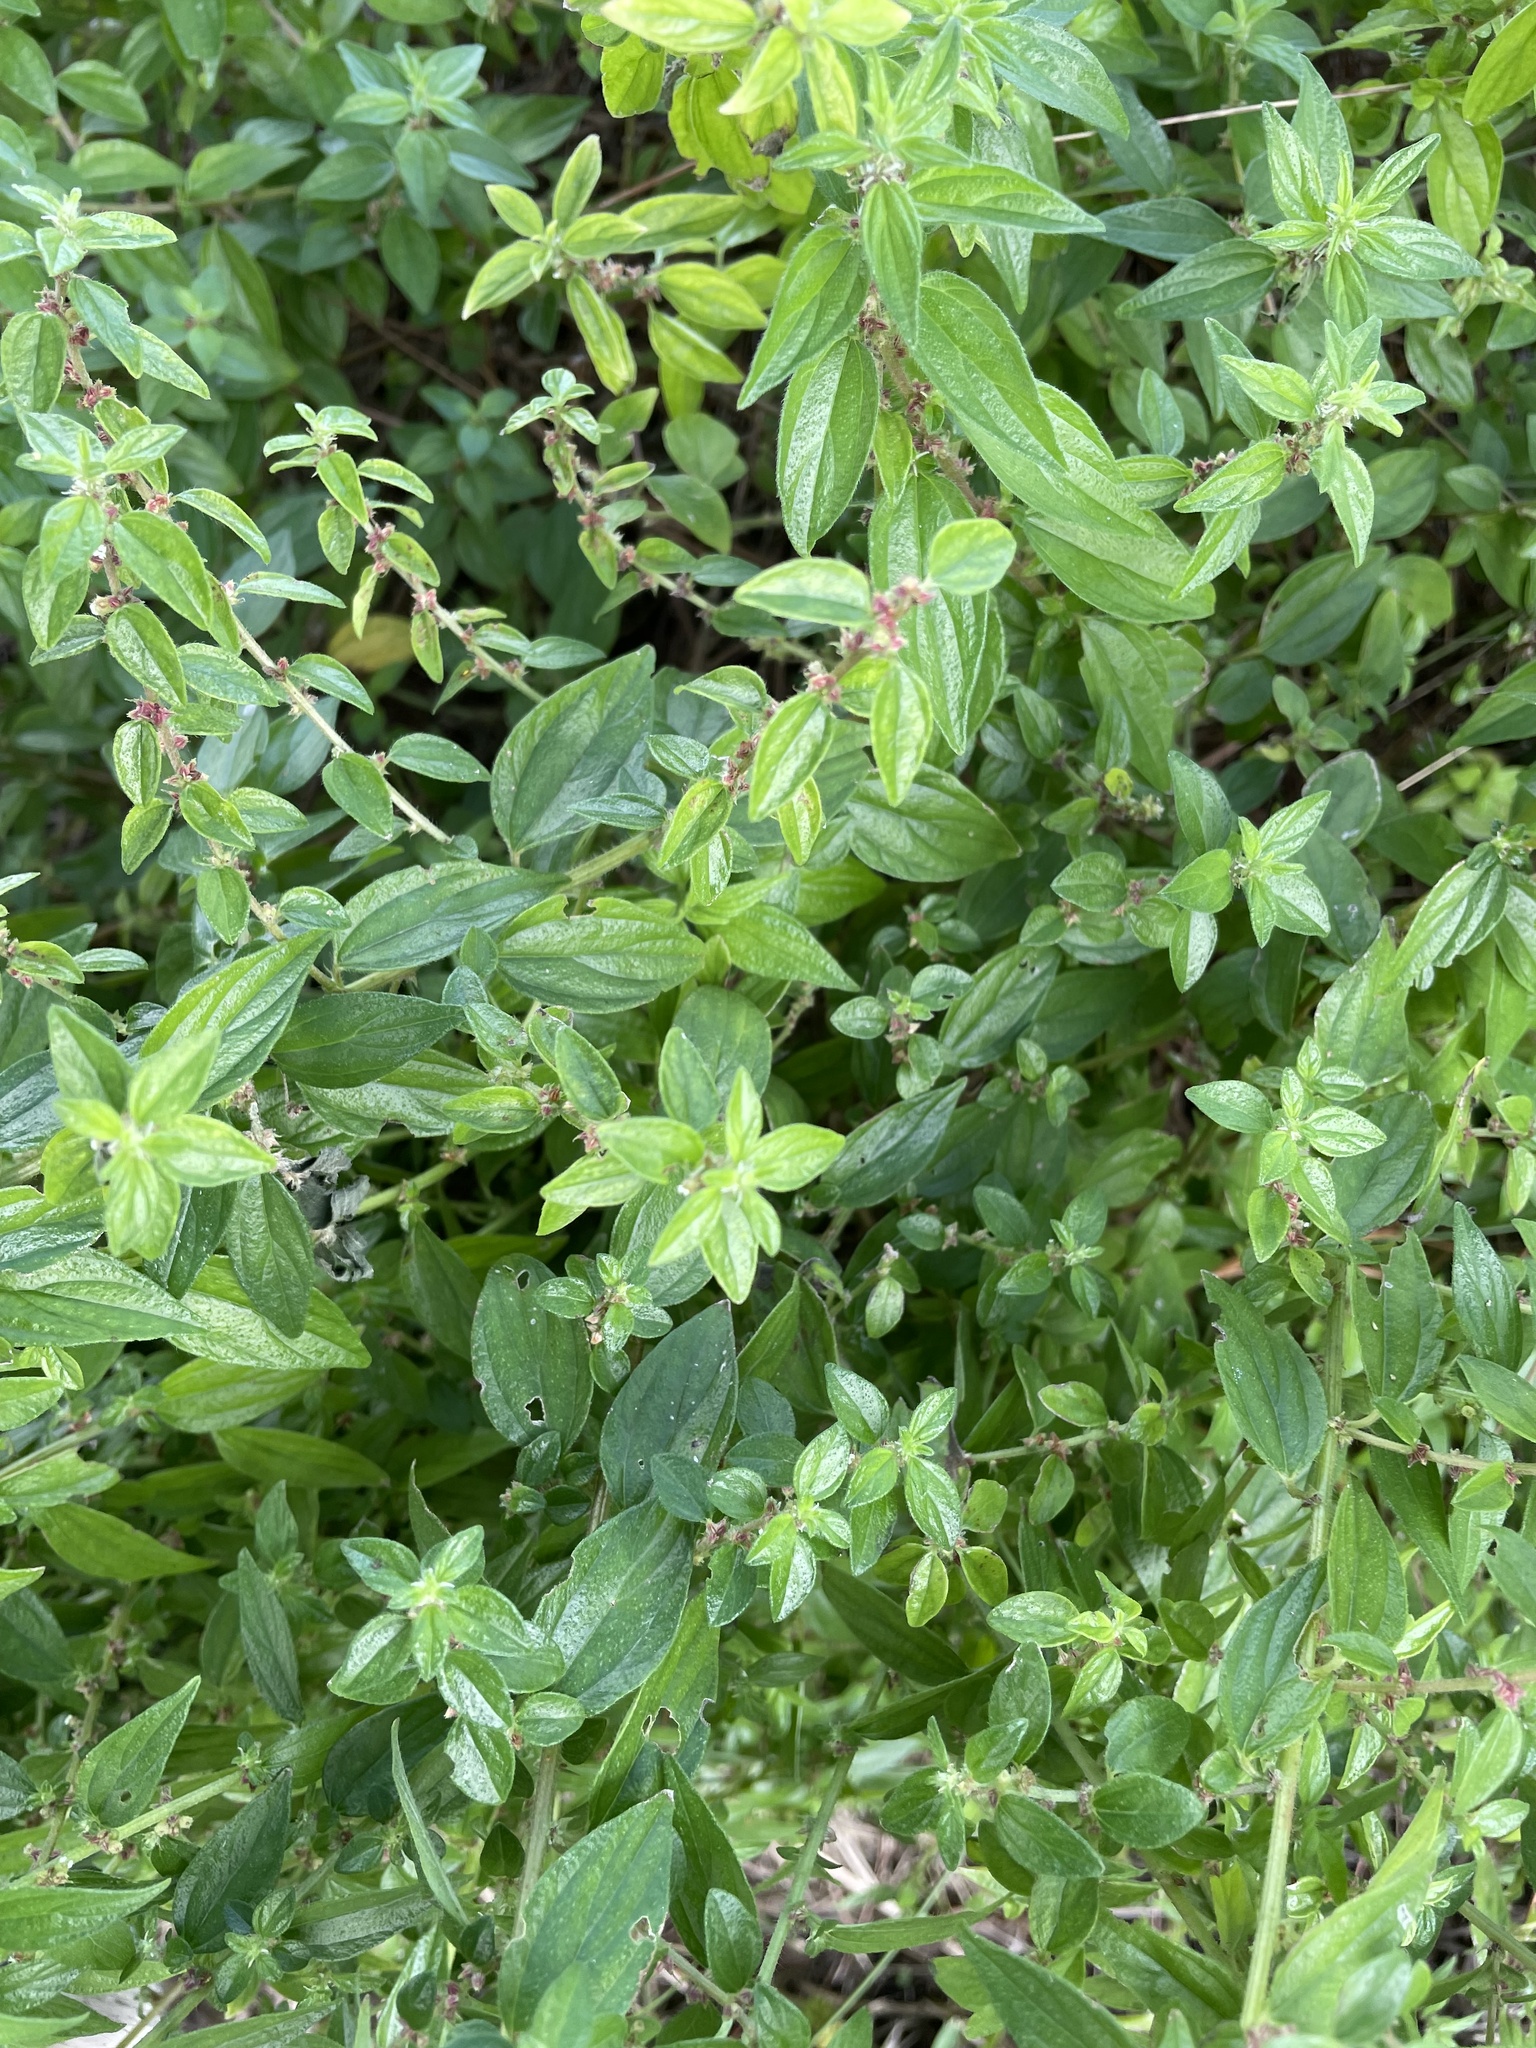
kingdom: Plantae
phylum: Tracheophyta
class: Magnoliopsida
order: Rosales
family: Urticaceae
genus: Pouzolzia
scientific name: Pouzolzia zeylanica
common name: Graceful pouzolzsbush
